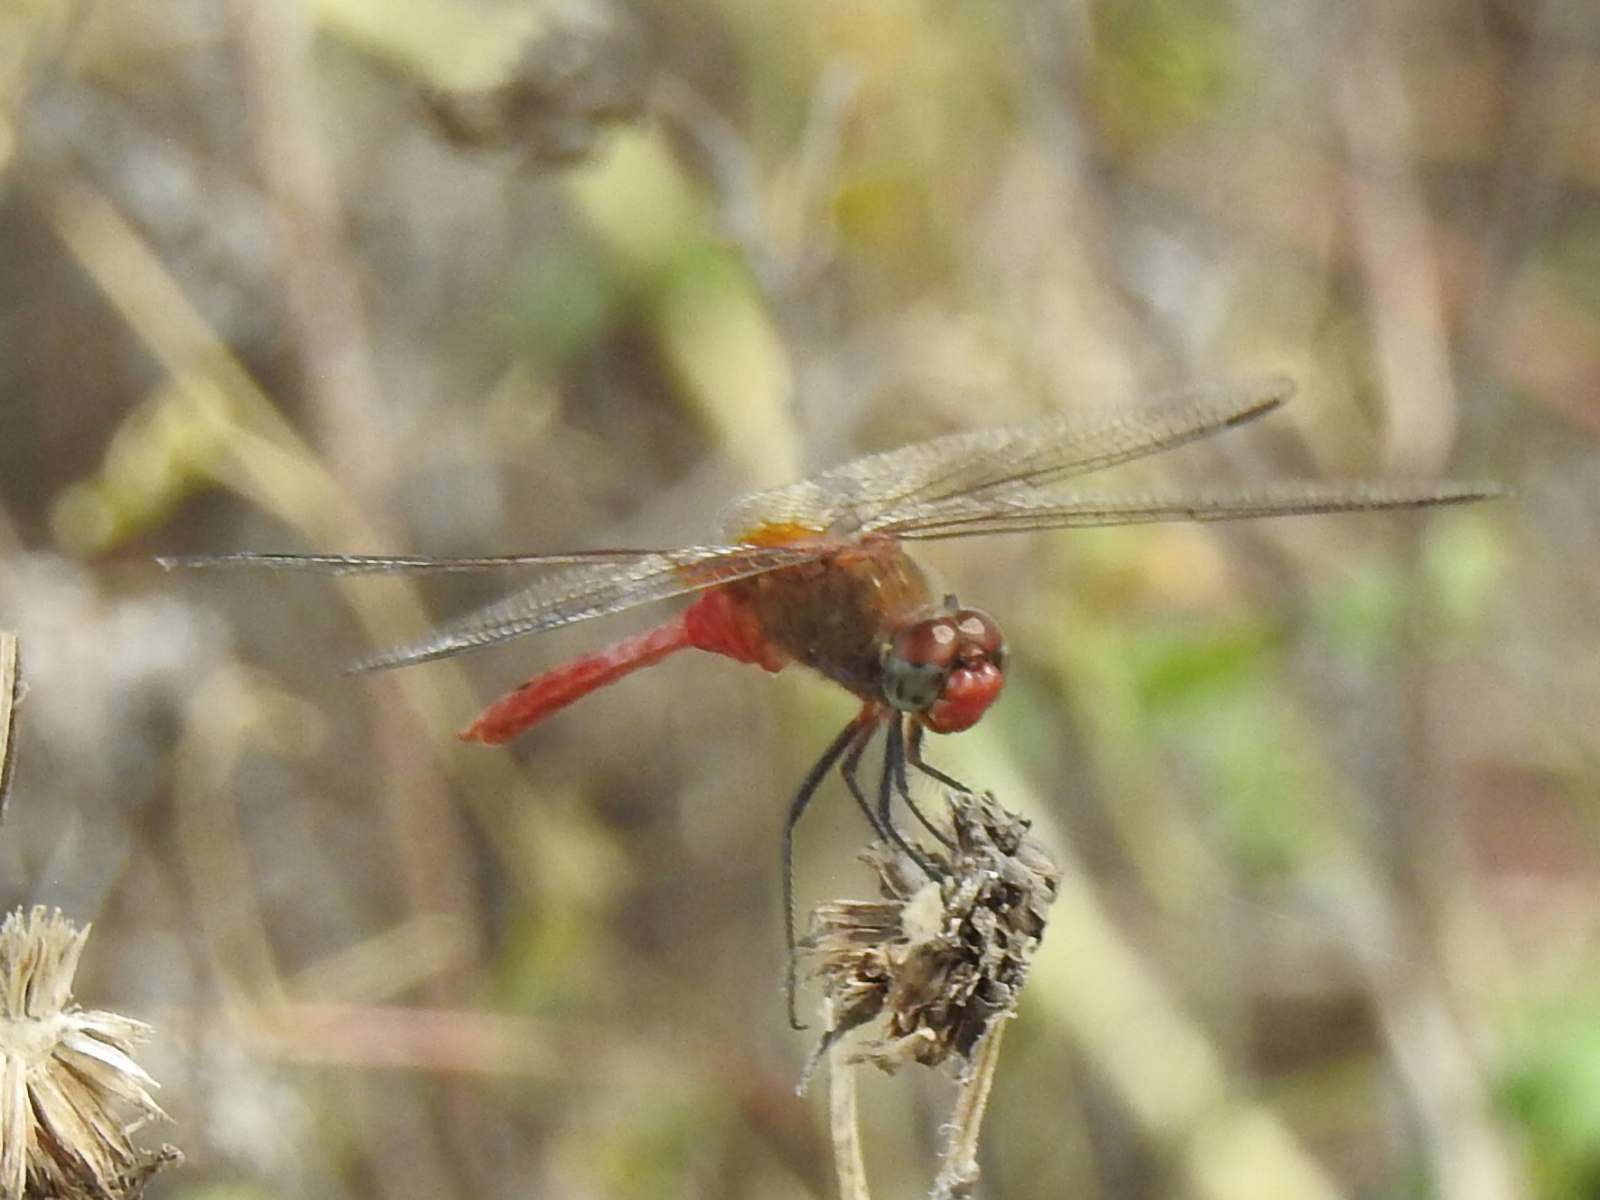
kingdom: Animalia
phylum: Arthropoda
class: Insecta
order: Odonata
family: Libellulidae
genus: Brachymesia
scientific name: Brachymesia furcata
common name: Red-taled pennant
